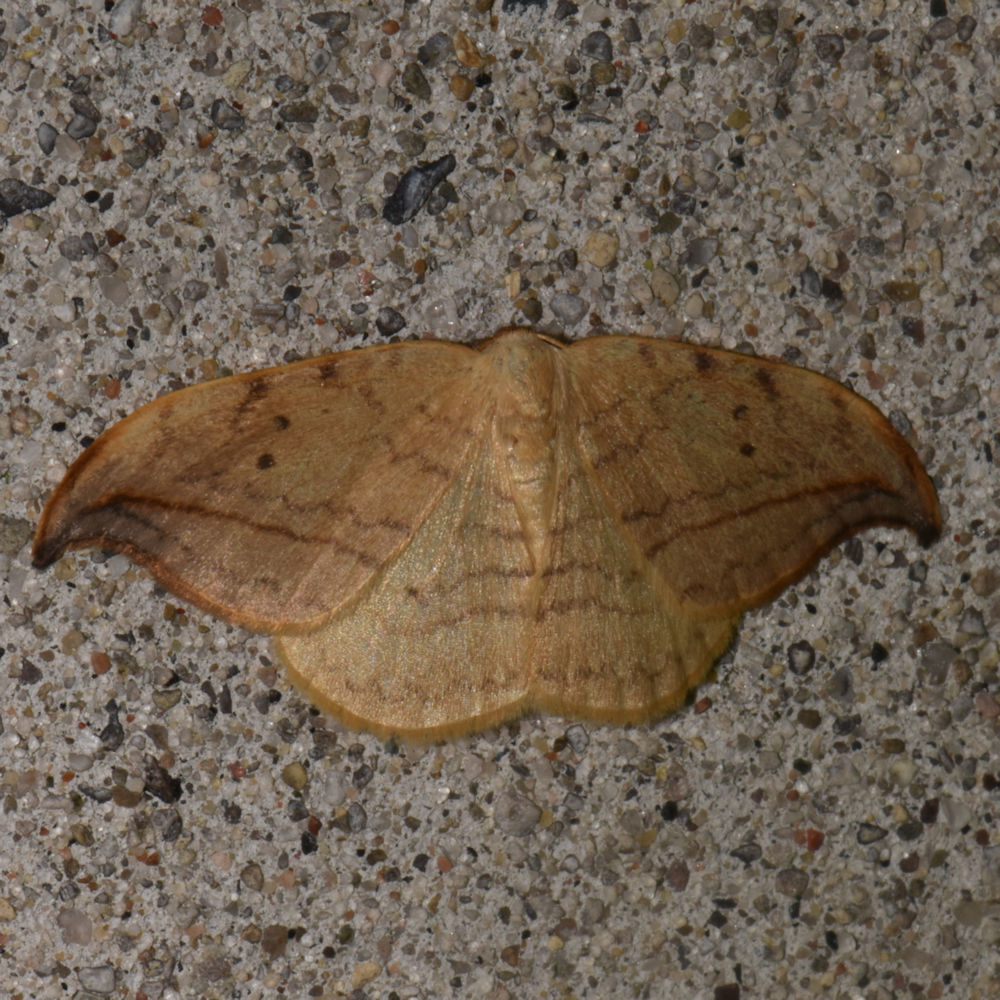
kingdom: Animalia
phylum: Arthropoda
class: Insecta
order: Lepidoptera
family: Drepanidae
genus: Drepana
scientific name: Drepana arcuata
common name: Arched hooktip moth
